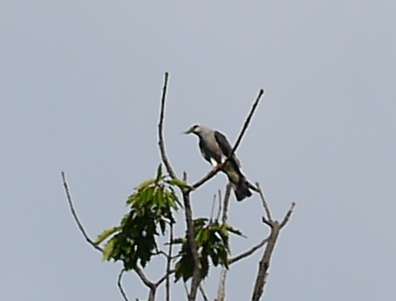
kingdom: Animalia
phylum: Chordata
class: Aves
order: Accipitriformes
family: Accipitridae
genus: Ictinia
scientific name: Ictinia mississippiensis
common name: Mississippi kite
